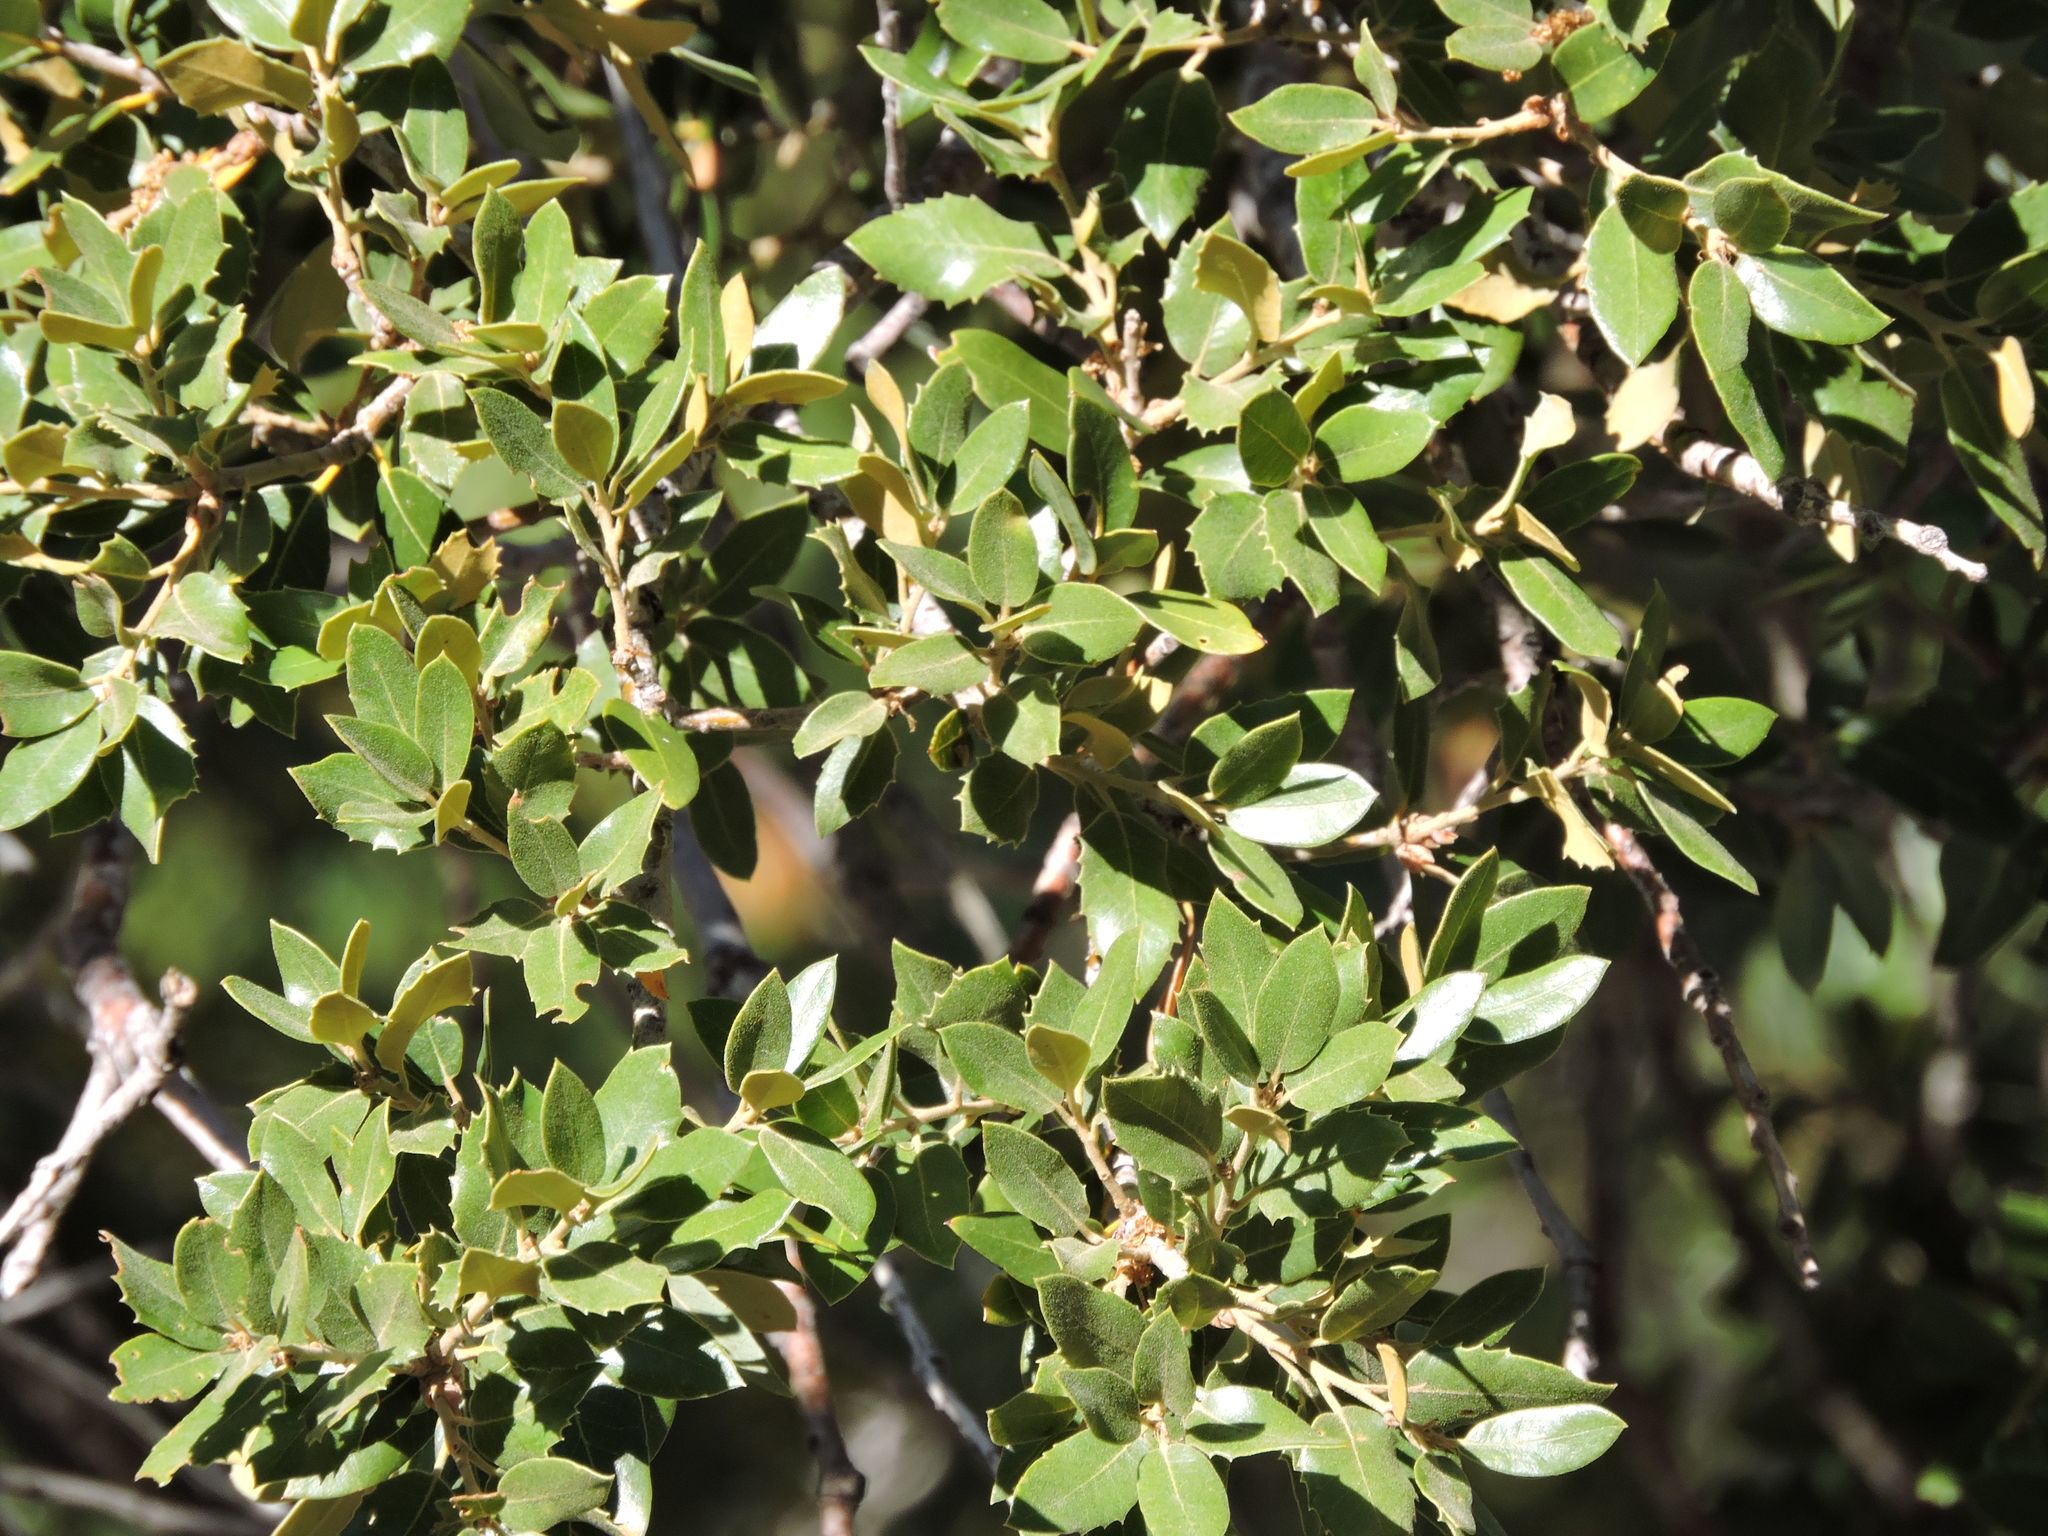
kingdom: Plantae
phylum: Tracheophyta
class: Magnoliopsida
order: Fagales
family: Fagaceae
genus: Quercus
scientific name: Quercus chrysolepis
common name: Canyon live oak
